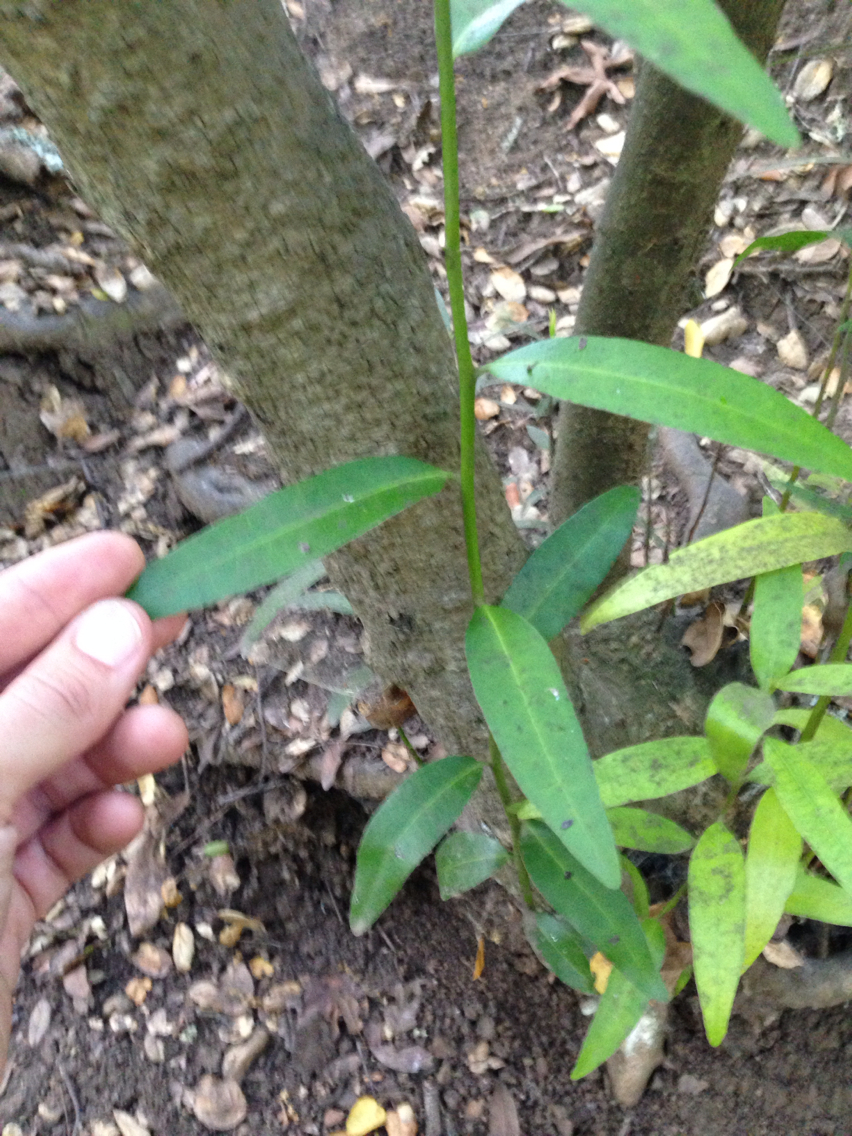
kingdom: Plantae
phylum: Tracheophyta
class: Magnoliopsida
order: Laurales
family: Lauraceae
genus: Umbellularia
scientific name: Umbellularia californica
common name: California bay
